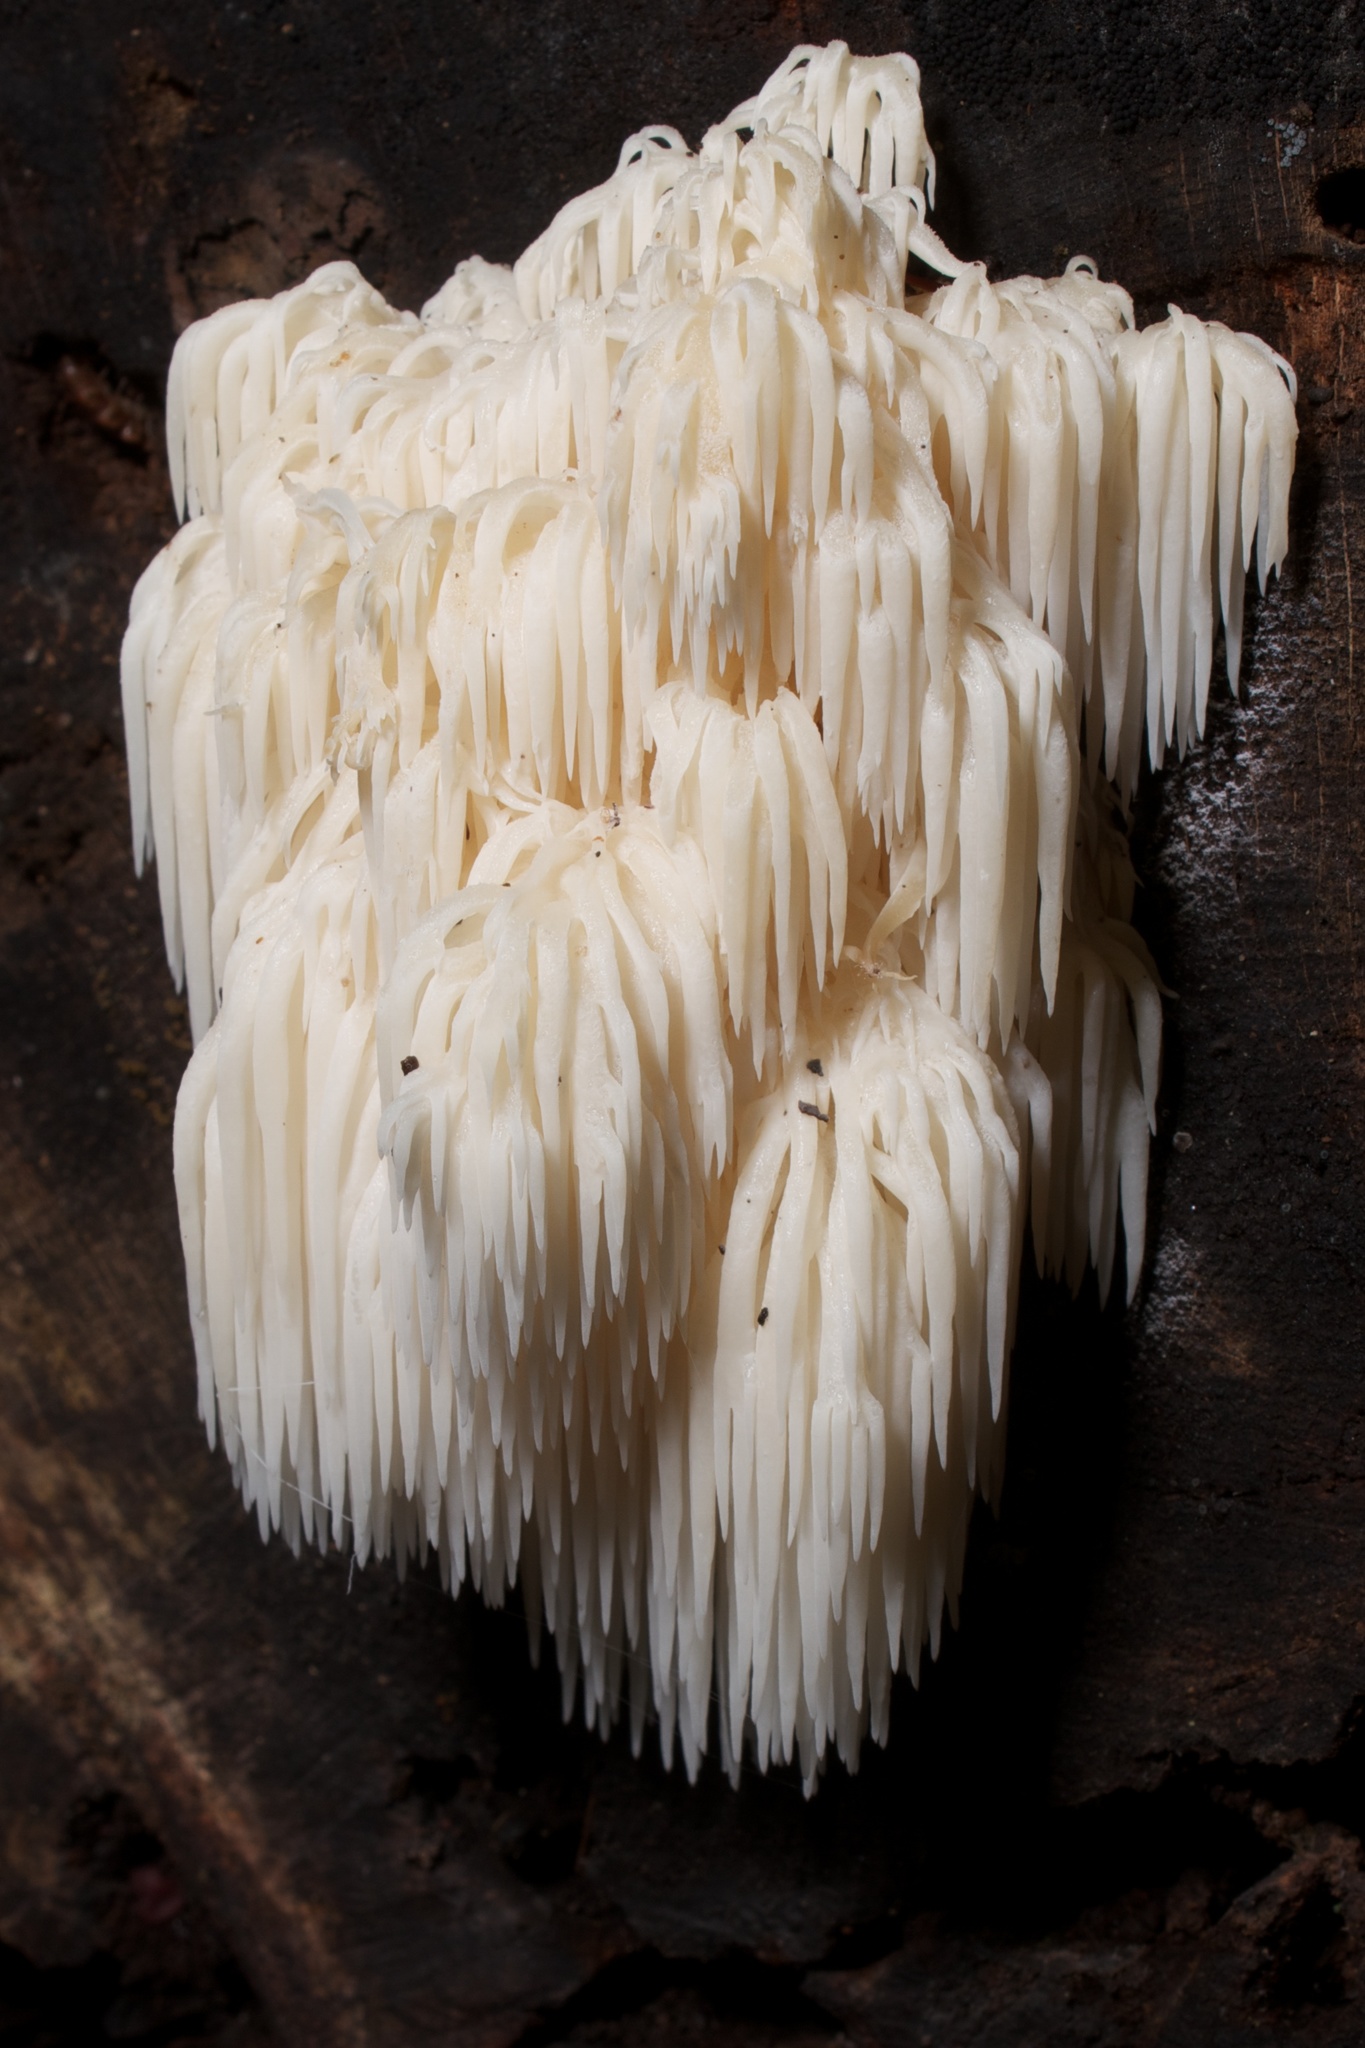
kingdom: Fungi
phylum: Basidiomycota
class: Agaricomycetes
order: Russulales
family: Hericiaceae
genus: Hericium
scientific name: Hericium americanum
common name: Bear's head tooth
